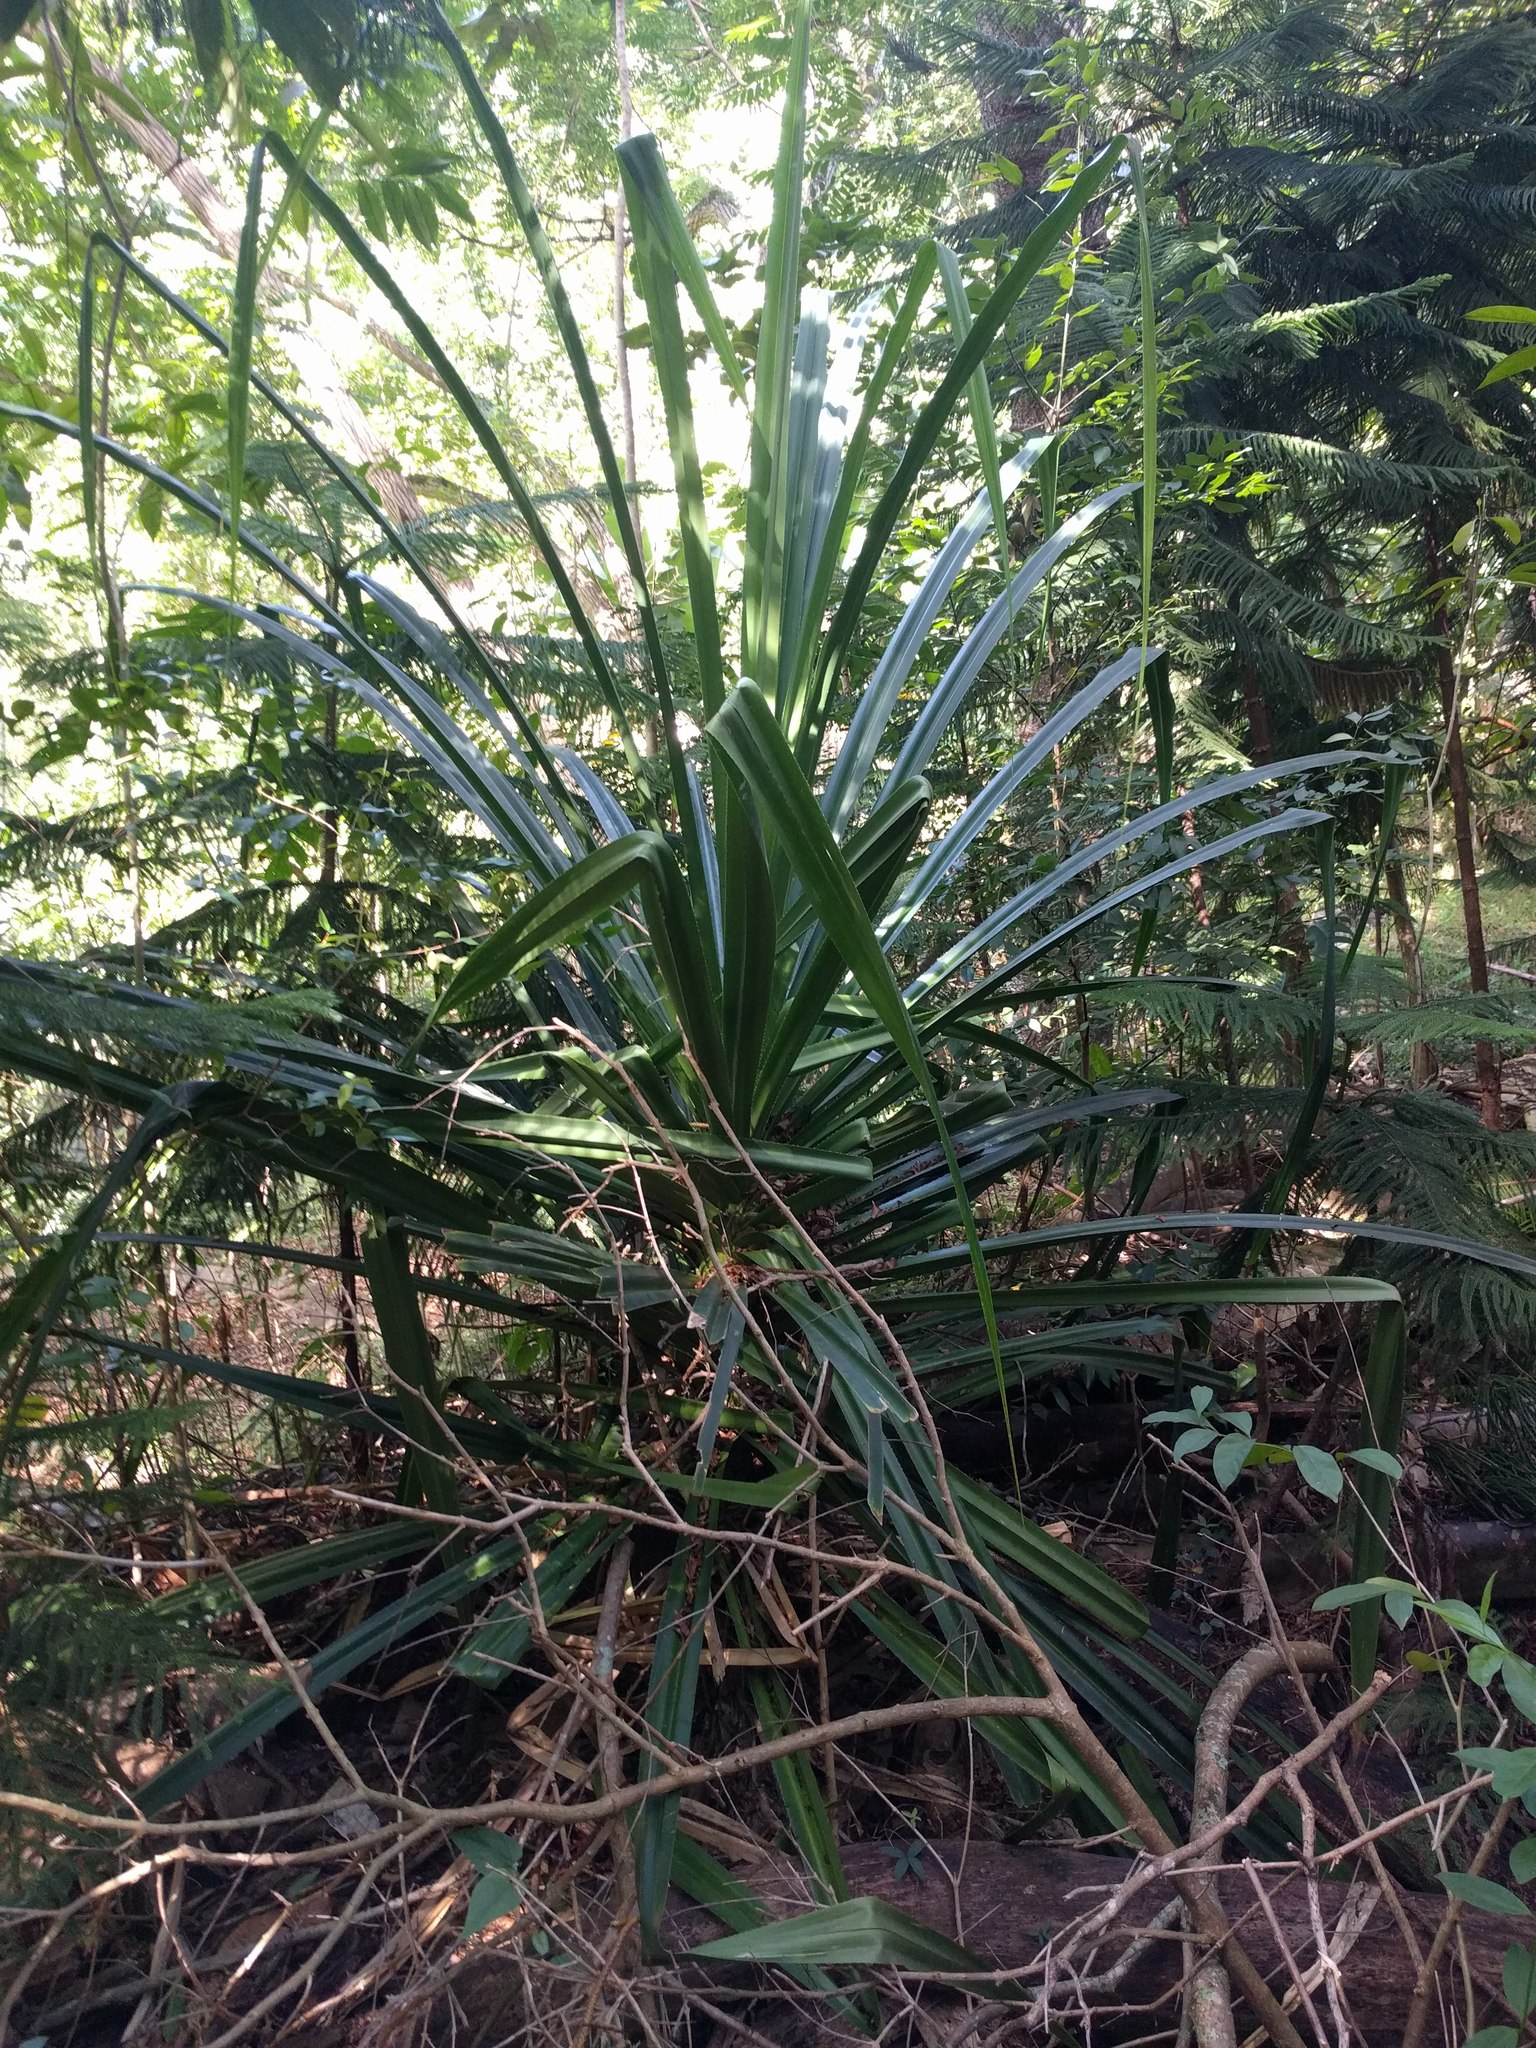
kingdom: Plantae
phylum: Tracheophyta
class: Liliopsida
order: Pandanales
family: Pandanaceae
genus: Pandanus
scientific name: Pandanus tectorius
